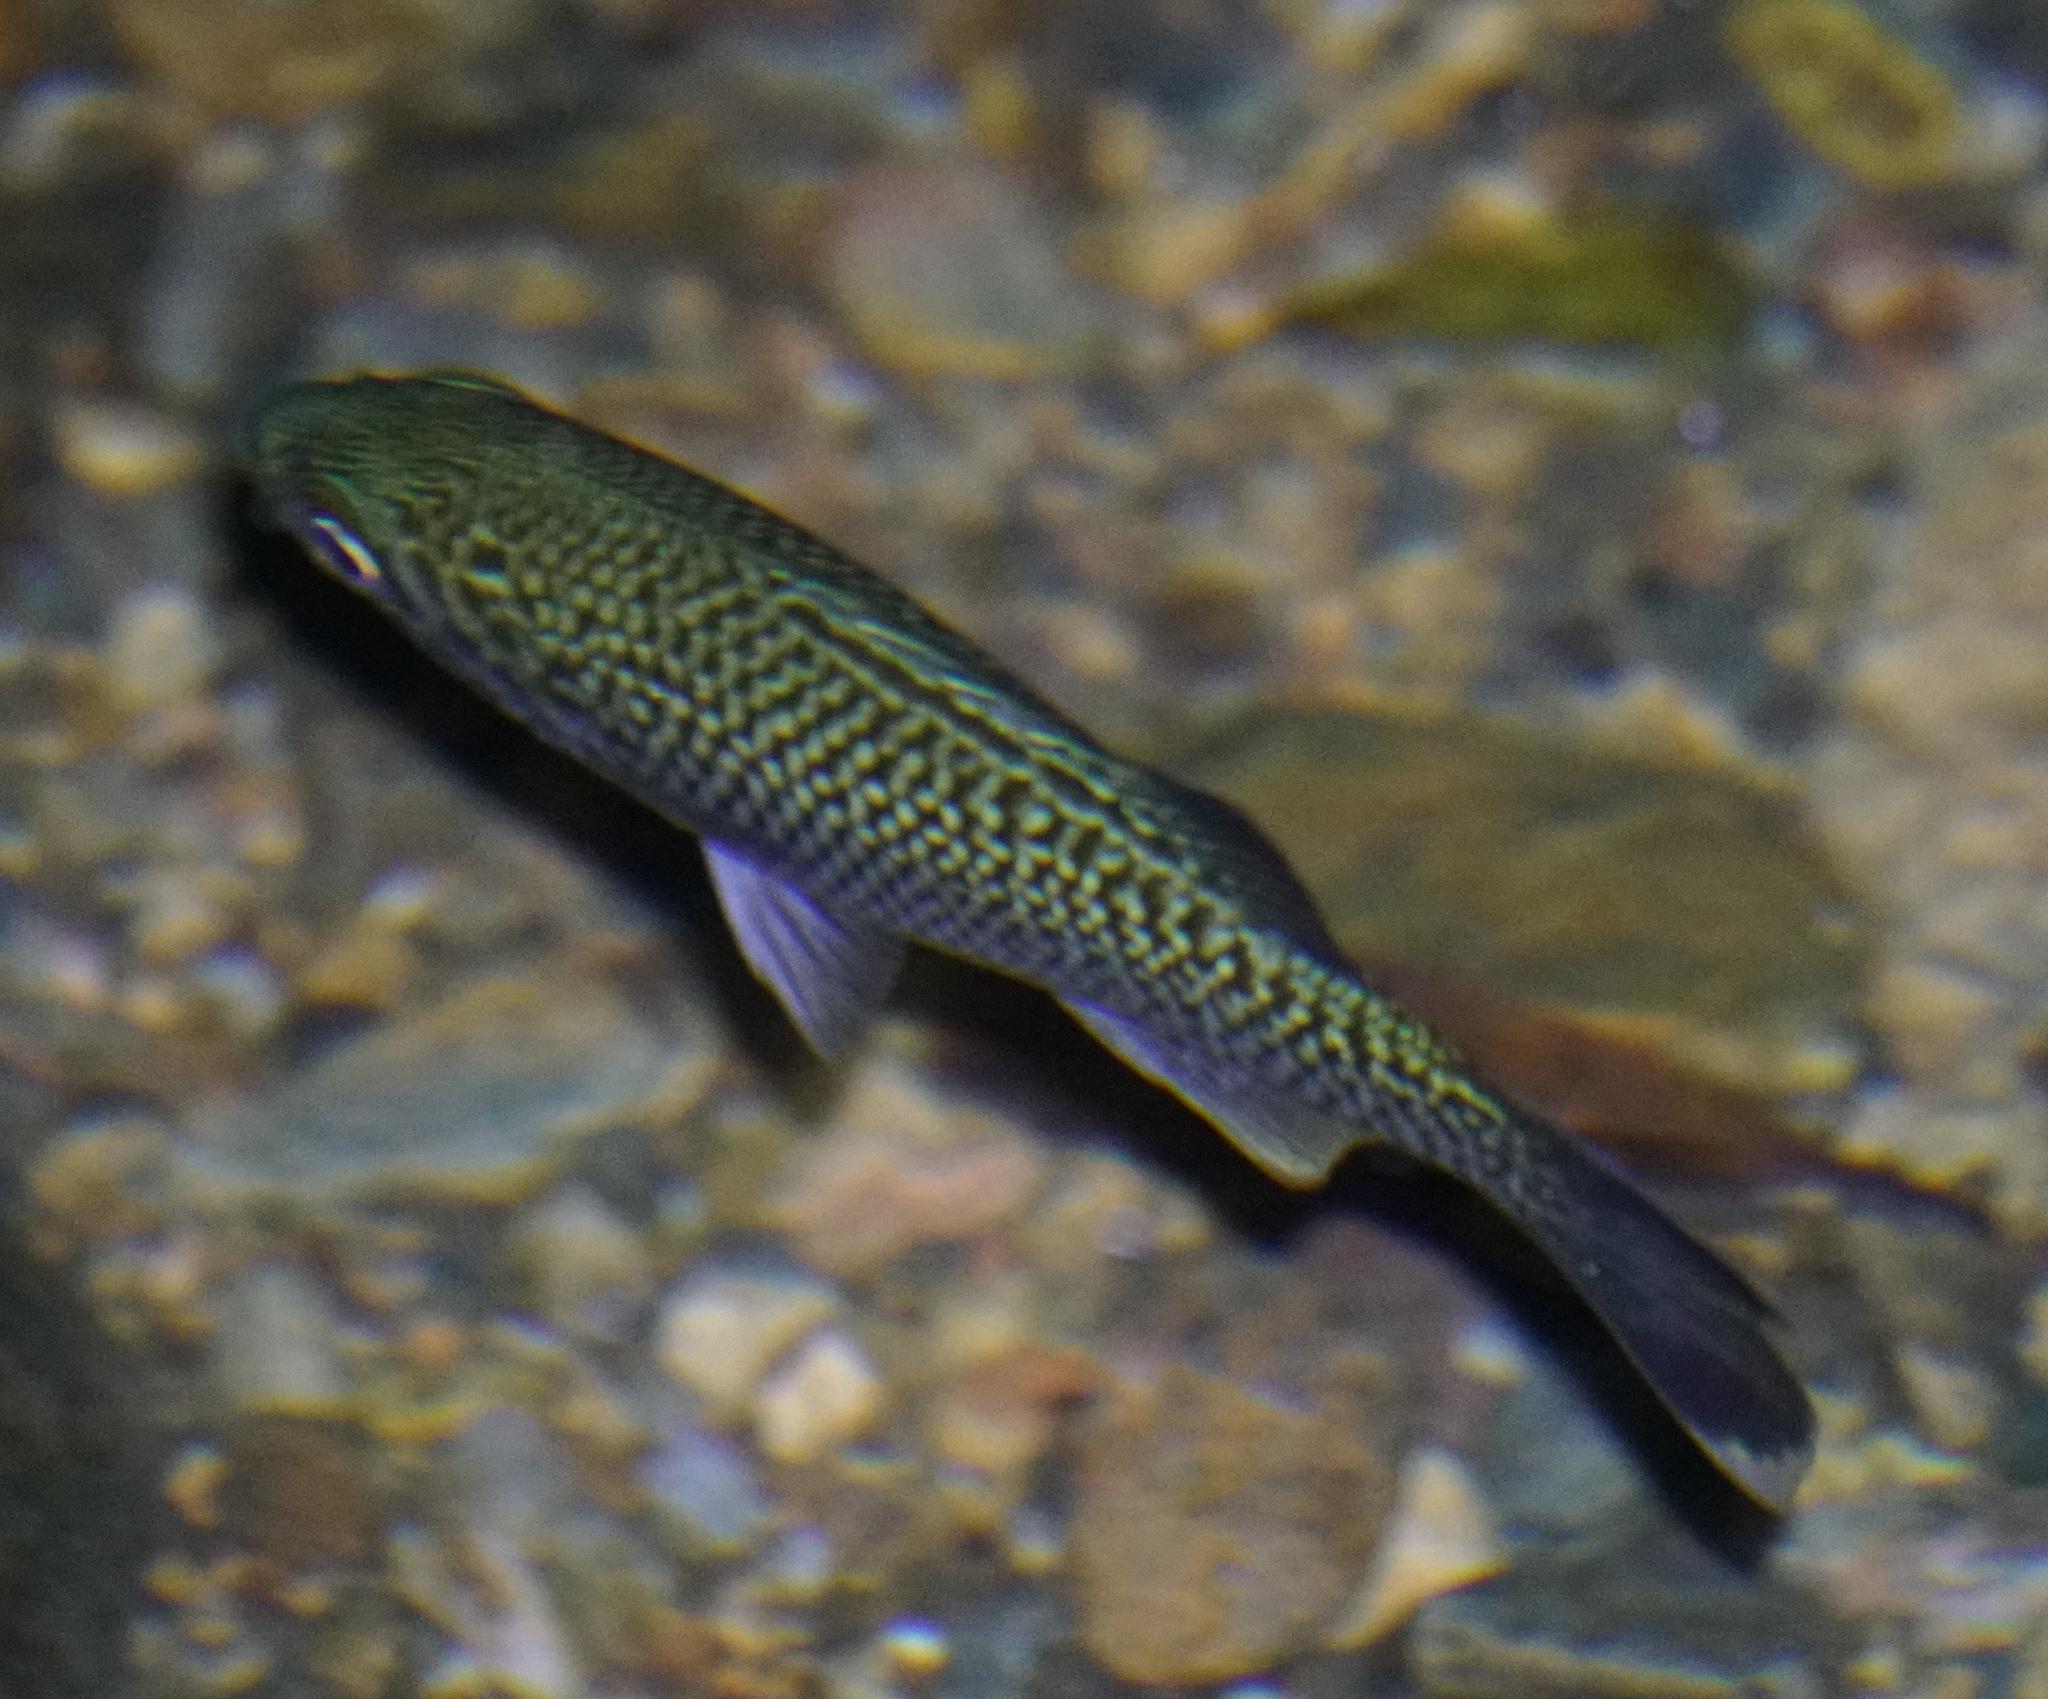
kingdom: Animalia
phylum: Chordata
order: Perciformes
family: Kuhliidae
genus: Kuhlia
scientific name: Kuhlia rupestris
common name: Rock flagtail
